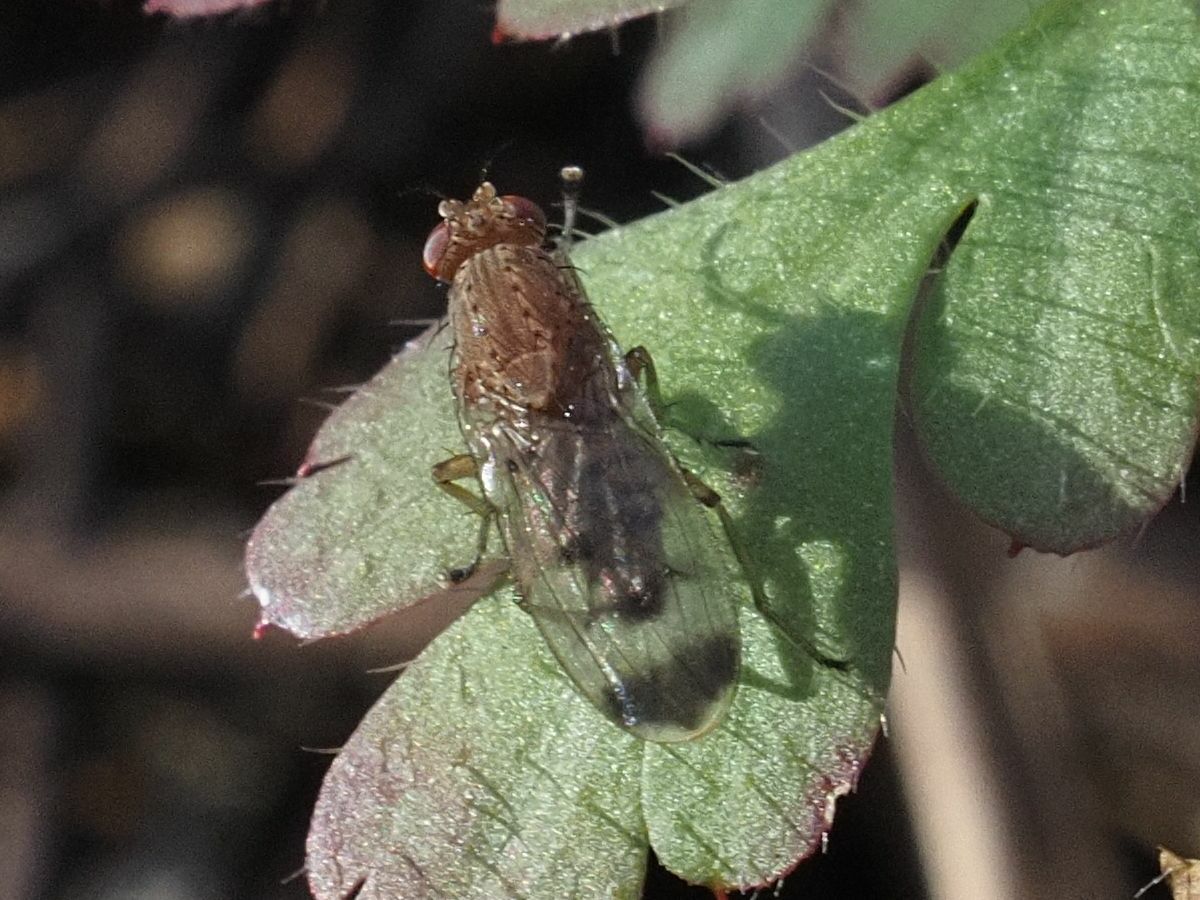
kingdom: Animalia
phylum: Arthropoda
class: Insecta
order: Diptera
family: Heleomyzidae
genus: Suillia
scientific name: Suillia variegata
